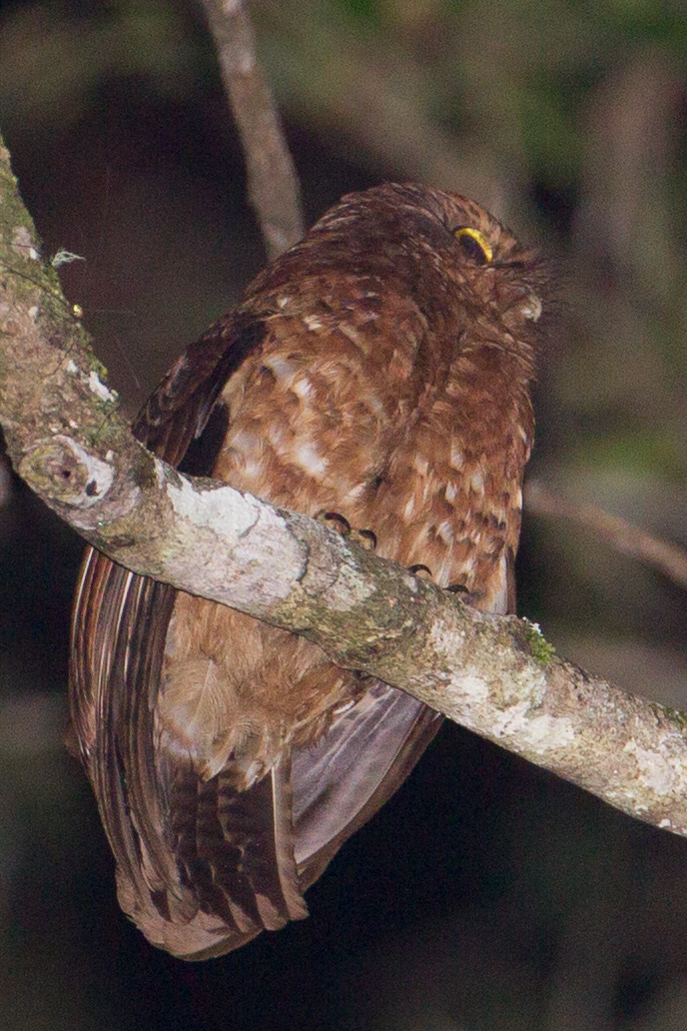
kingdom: Animalia
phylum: Chordata
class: Aves
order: Strigiformes
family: Strigidae
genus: Ninox
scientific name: Ninox ios
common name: Cinnabar boobook
